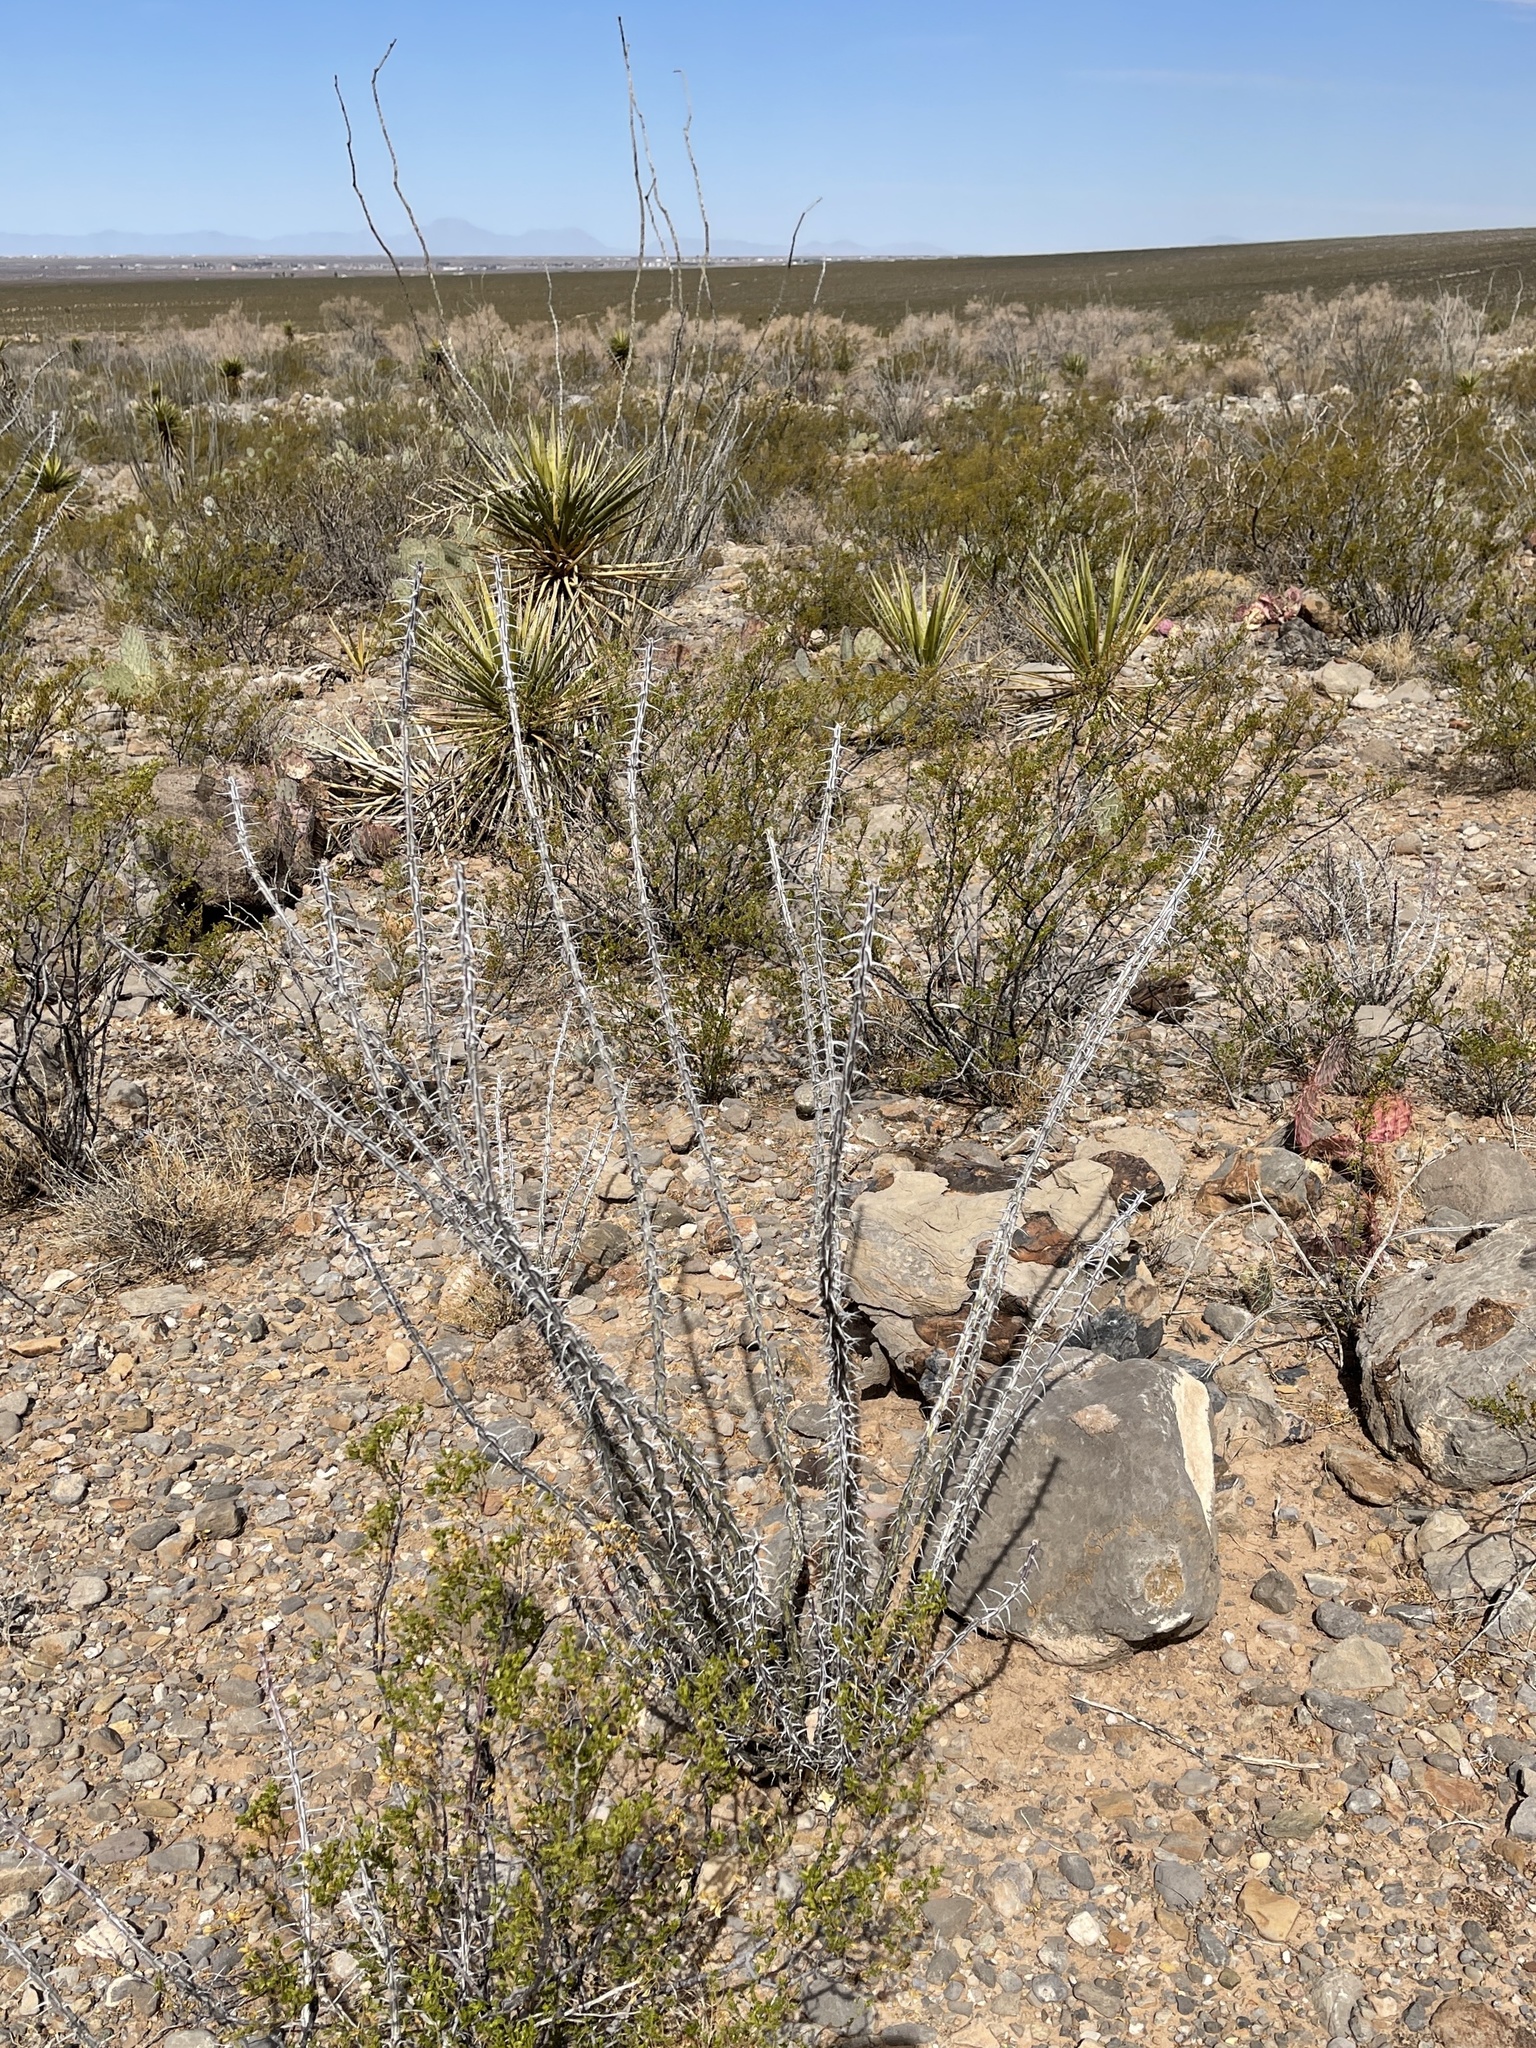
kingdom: Plantae
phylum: Tracheophyta
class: Magnoliopsida
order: Ericales
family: Fouquieriaceae
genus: Fouquieria
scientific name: Fouquieria splendens
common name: Vine-cactus
